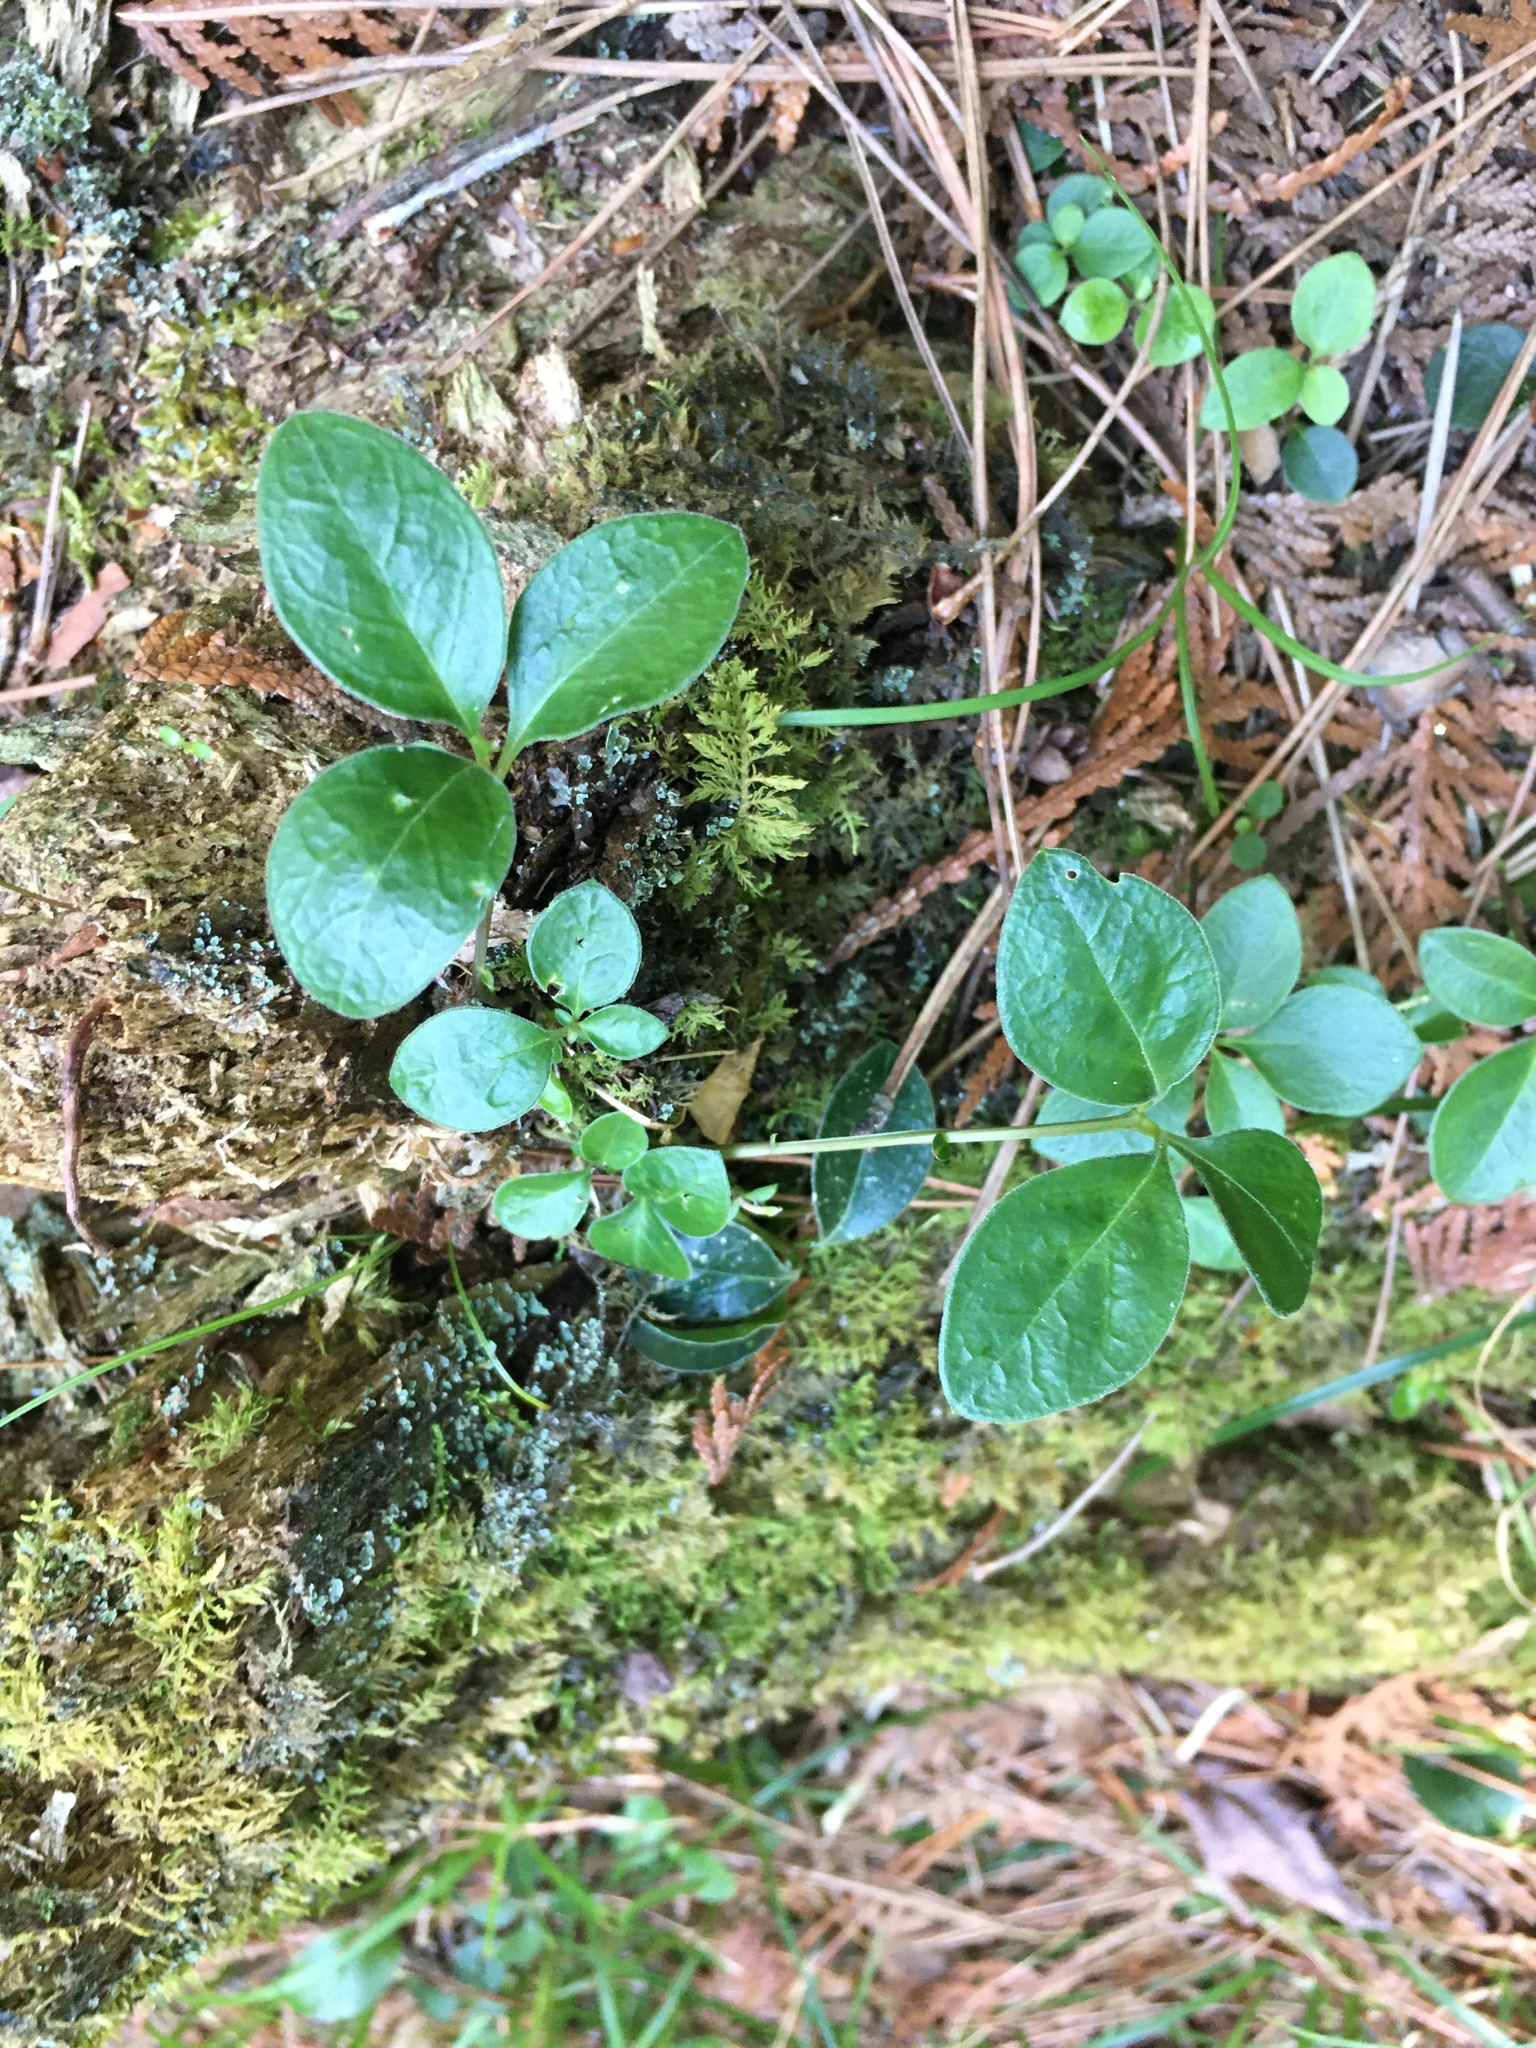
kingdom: Plantae
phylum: Tracheophyta
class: Magnoliopsida
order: Fabales
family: Polygalaceae
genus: Polygaloides
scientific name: Polygaloides paucifolia
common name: Bird-on-the-wing
